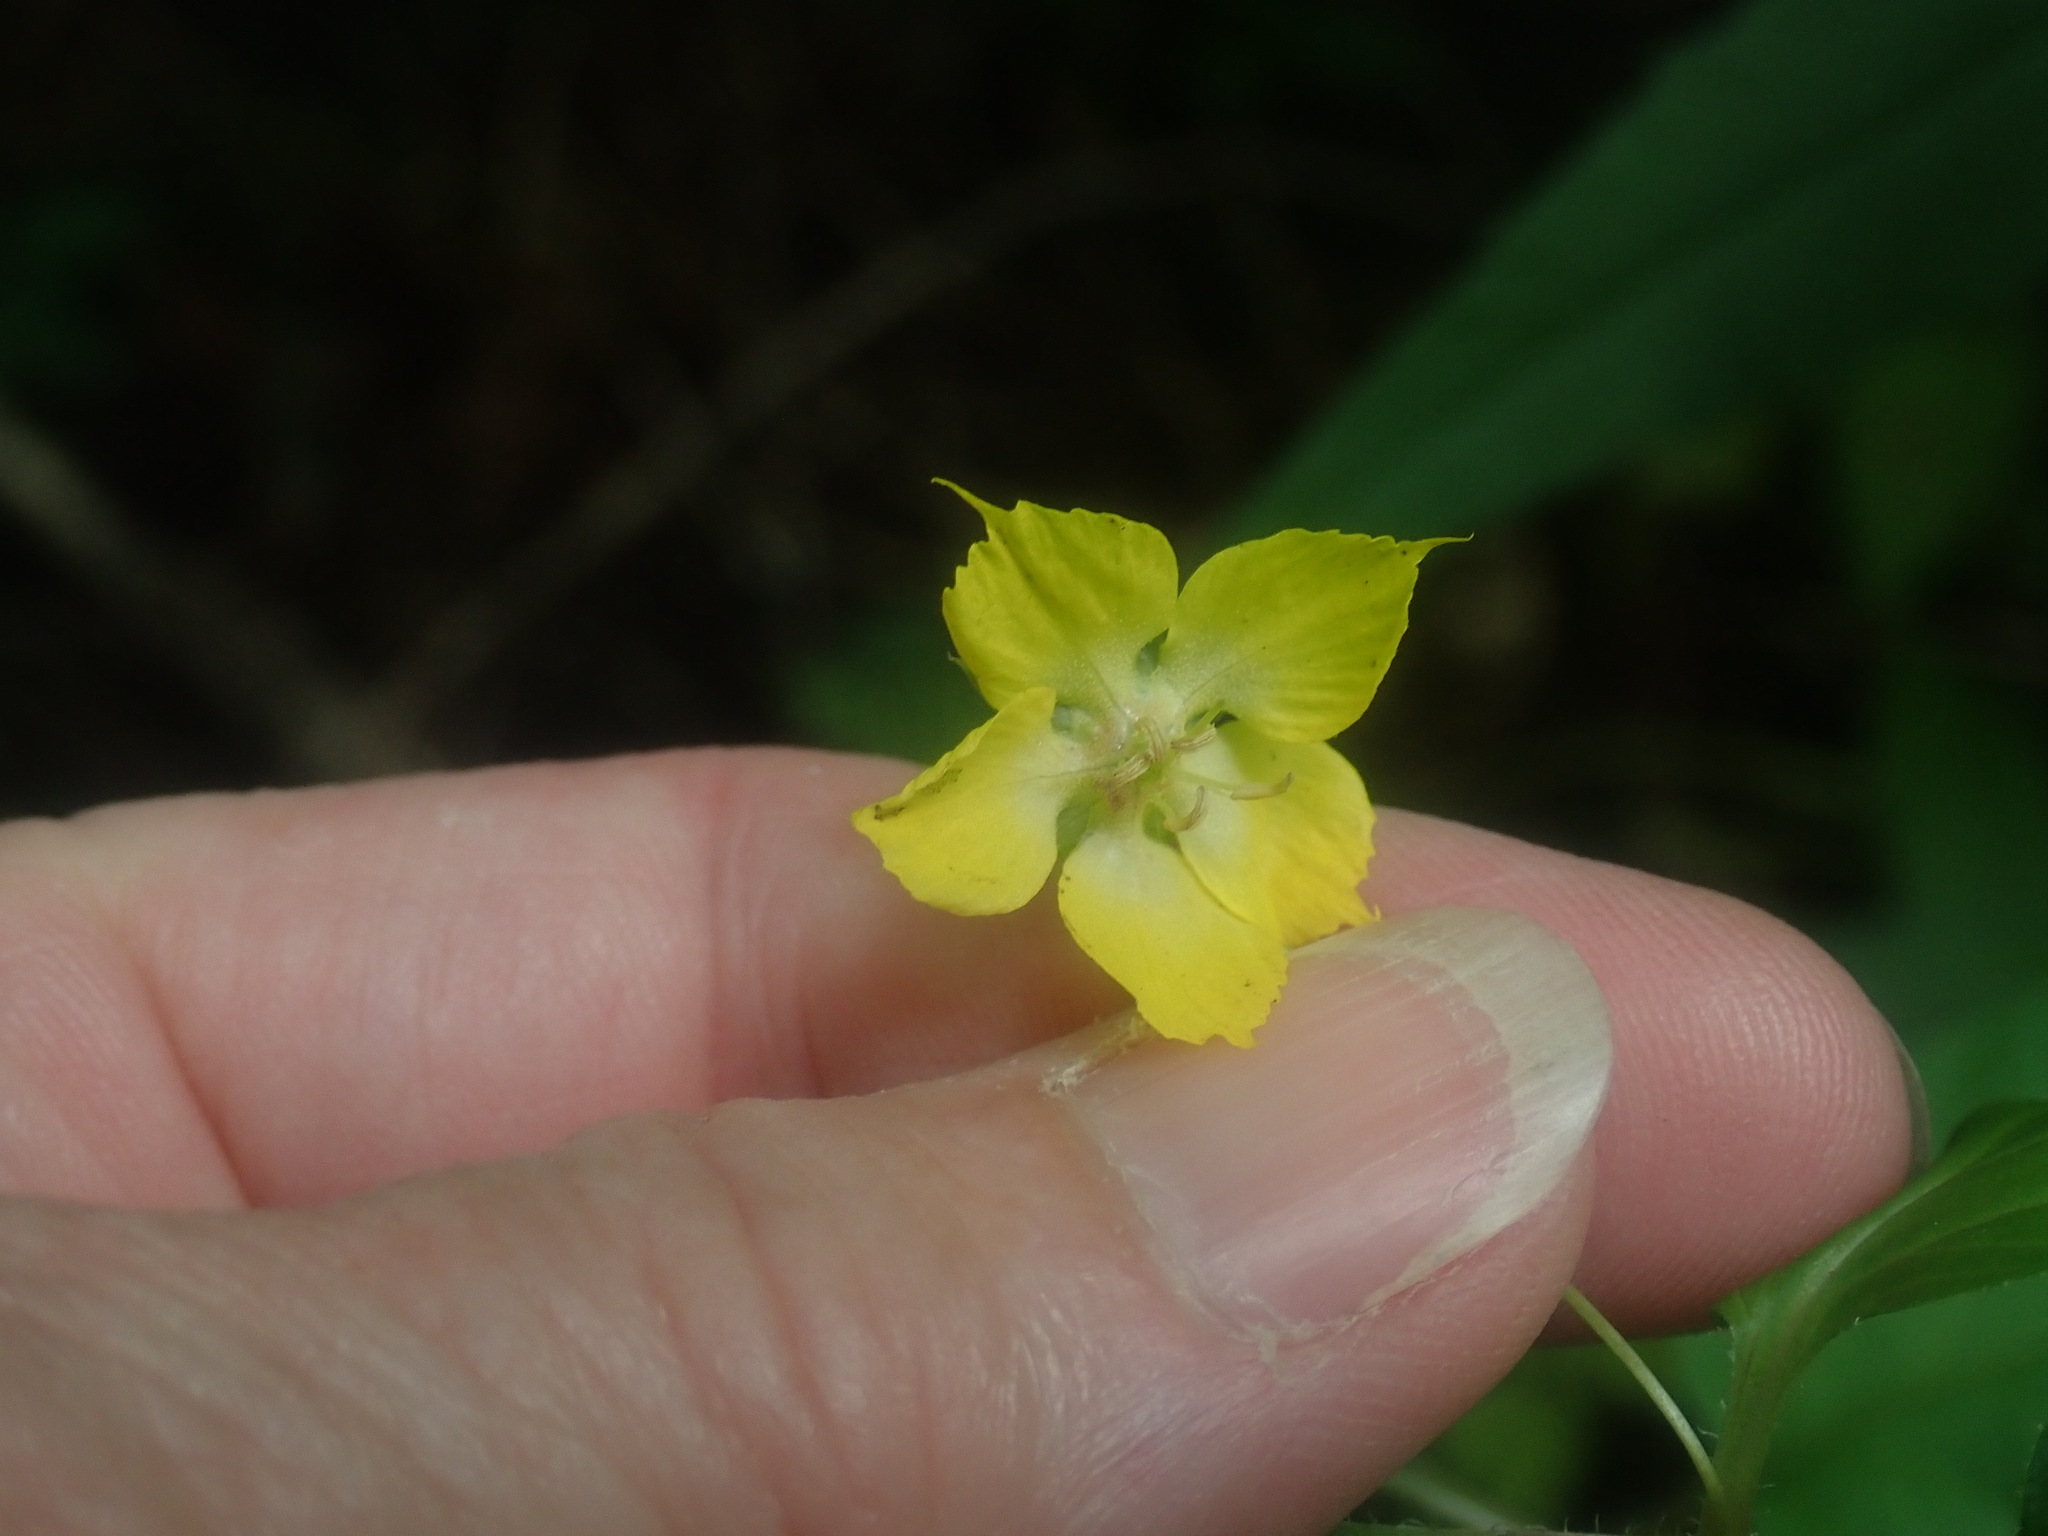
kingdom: Plantae
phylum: Tracheophyta
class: Magnoliopsida
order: Ericales
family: Primulaceae
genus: Lysimachia
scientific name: Lysimachia ciliata
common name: Fringed loosestrife
